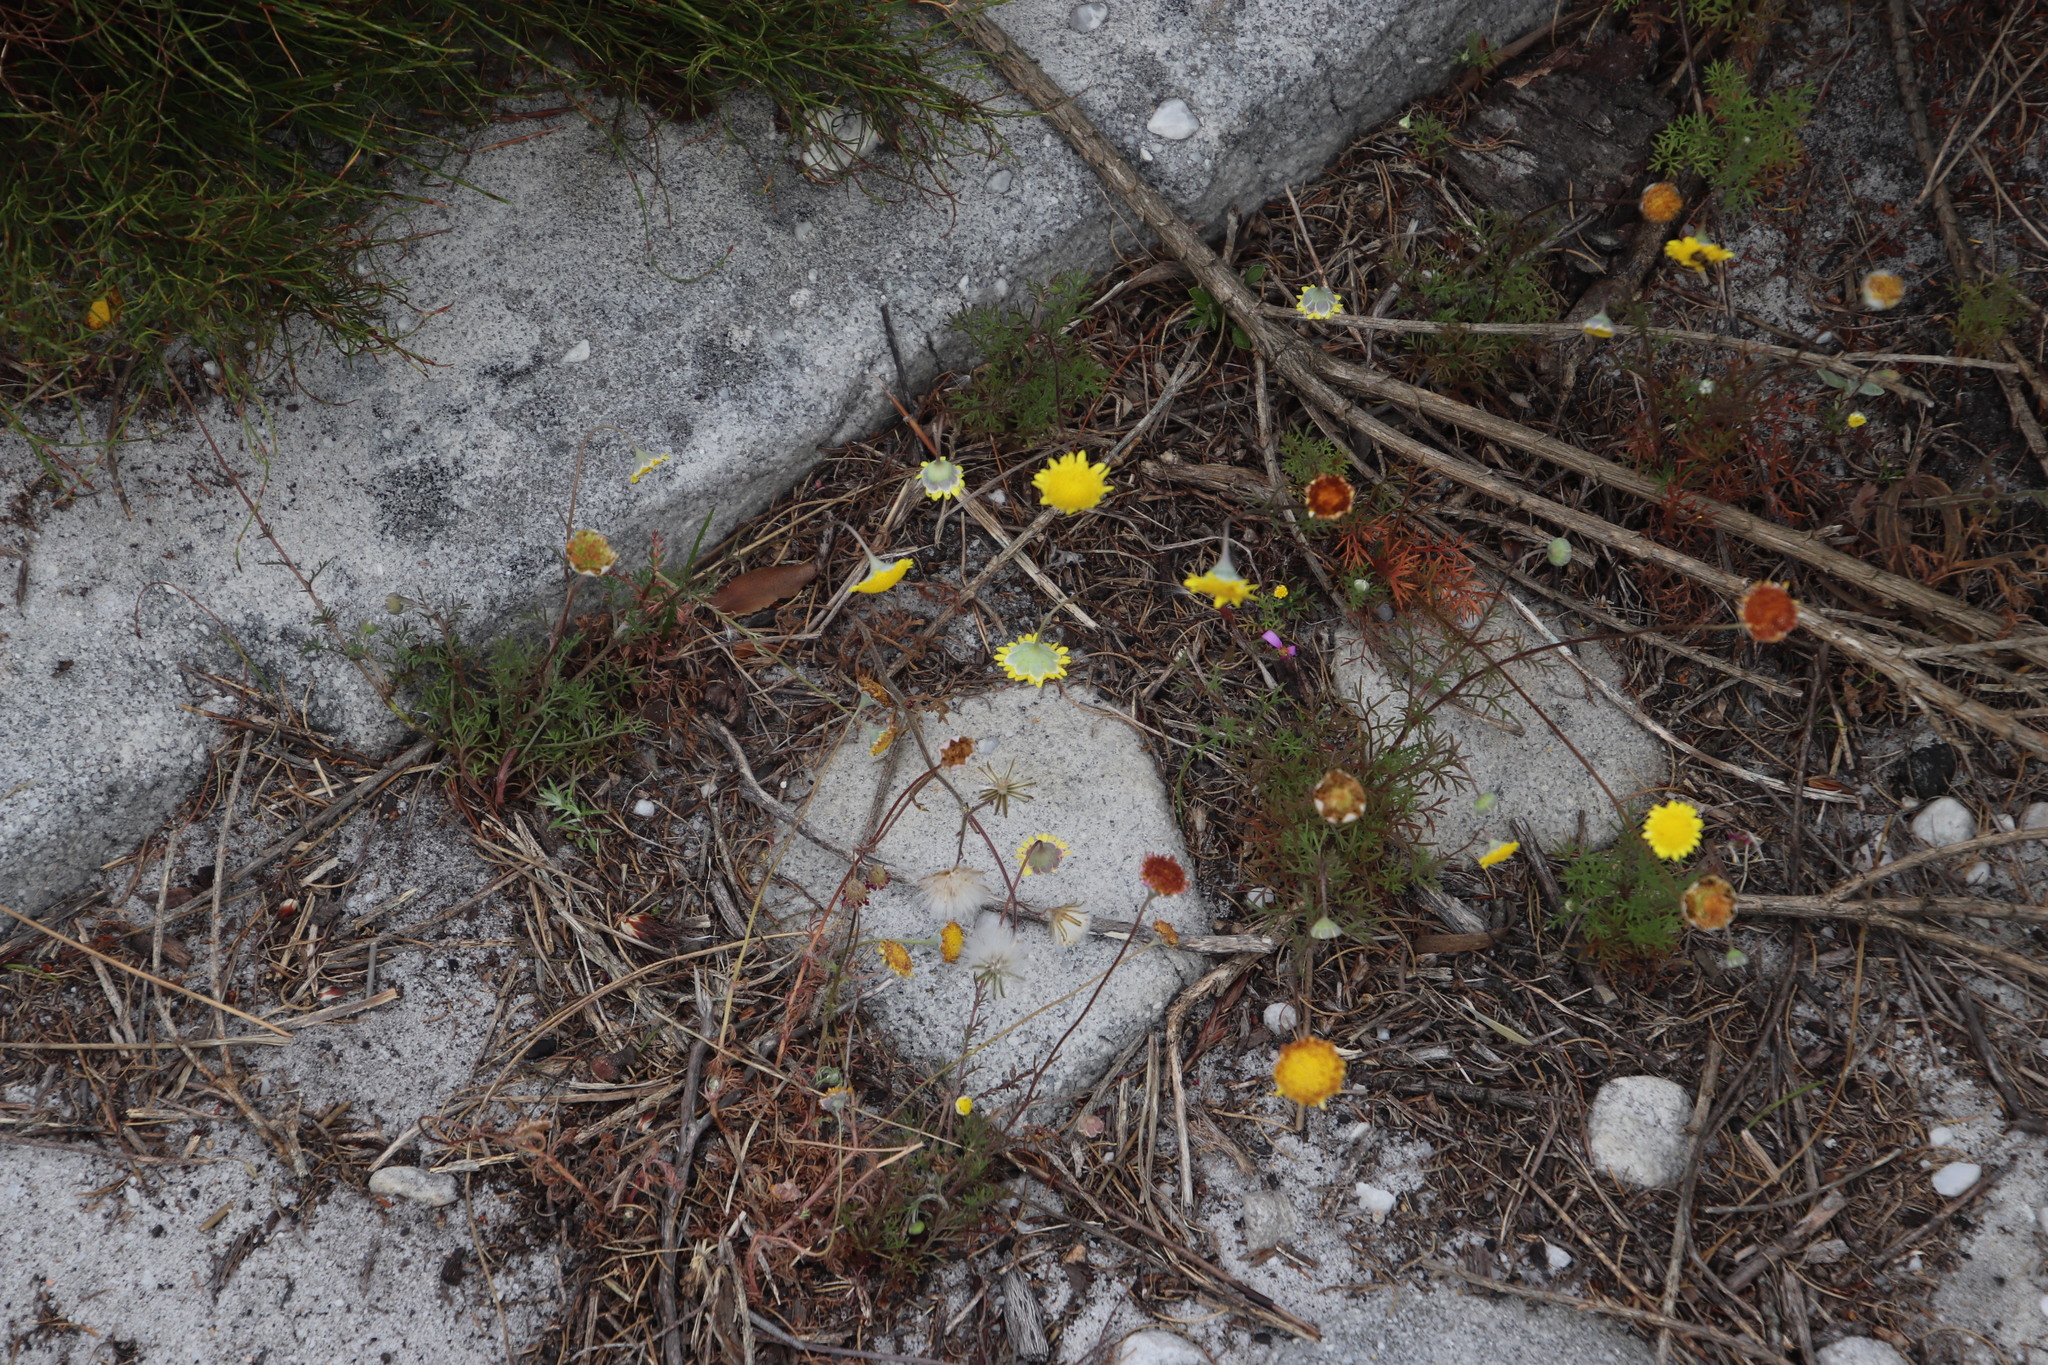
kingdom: Plantae
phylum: Tracheophyta
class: Magnoliopsida
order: Asterales
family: Asteraceae
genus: Cotula
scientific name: Cotula pruinosa
